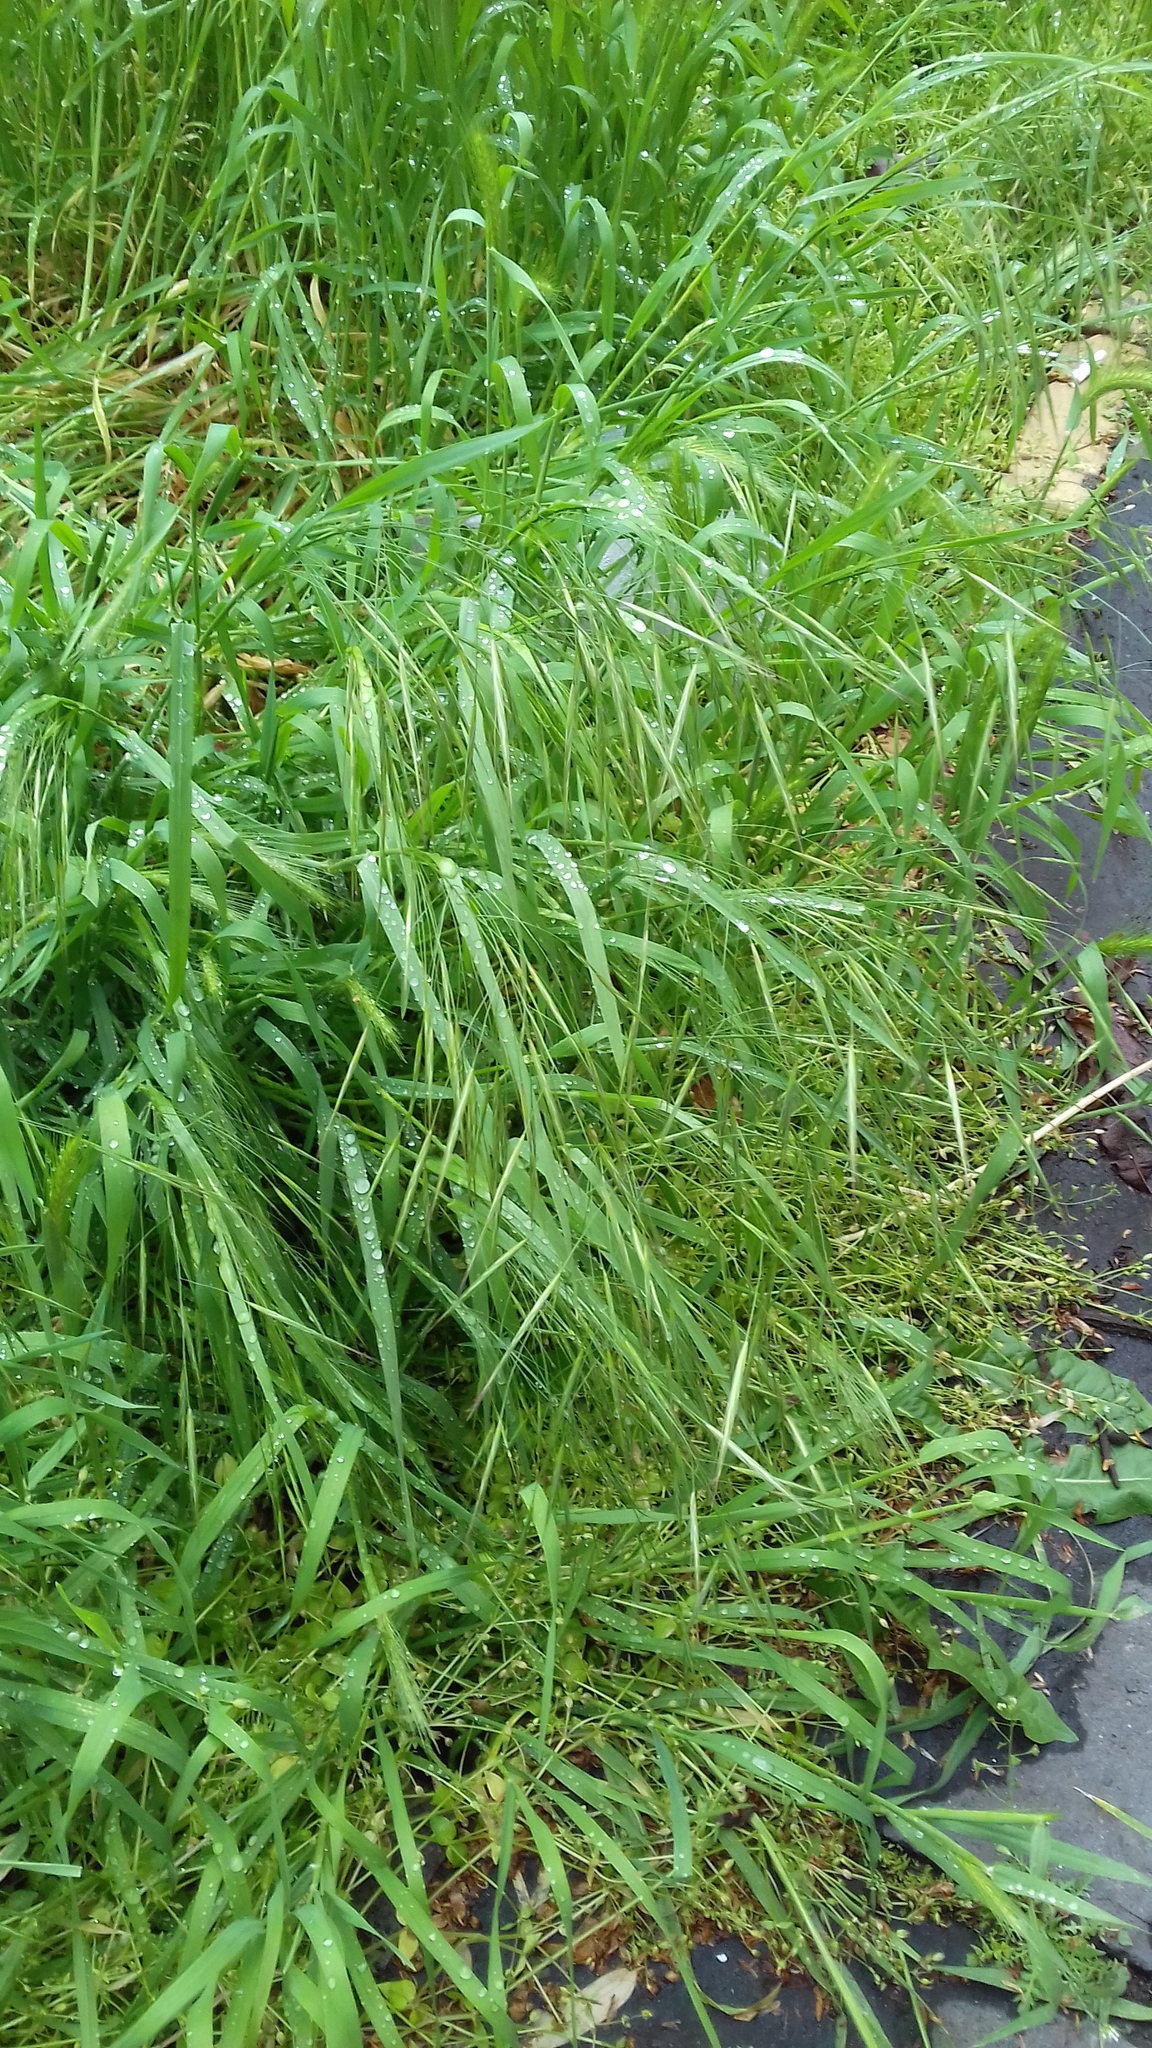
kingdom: Plantae
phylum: Tracheophyta
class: Liliopsida
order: Poales
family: Poaceae
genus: Bromus
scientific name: Bromus sterilis
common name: Poverty brome
